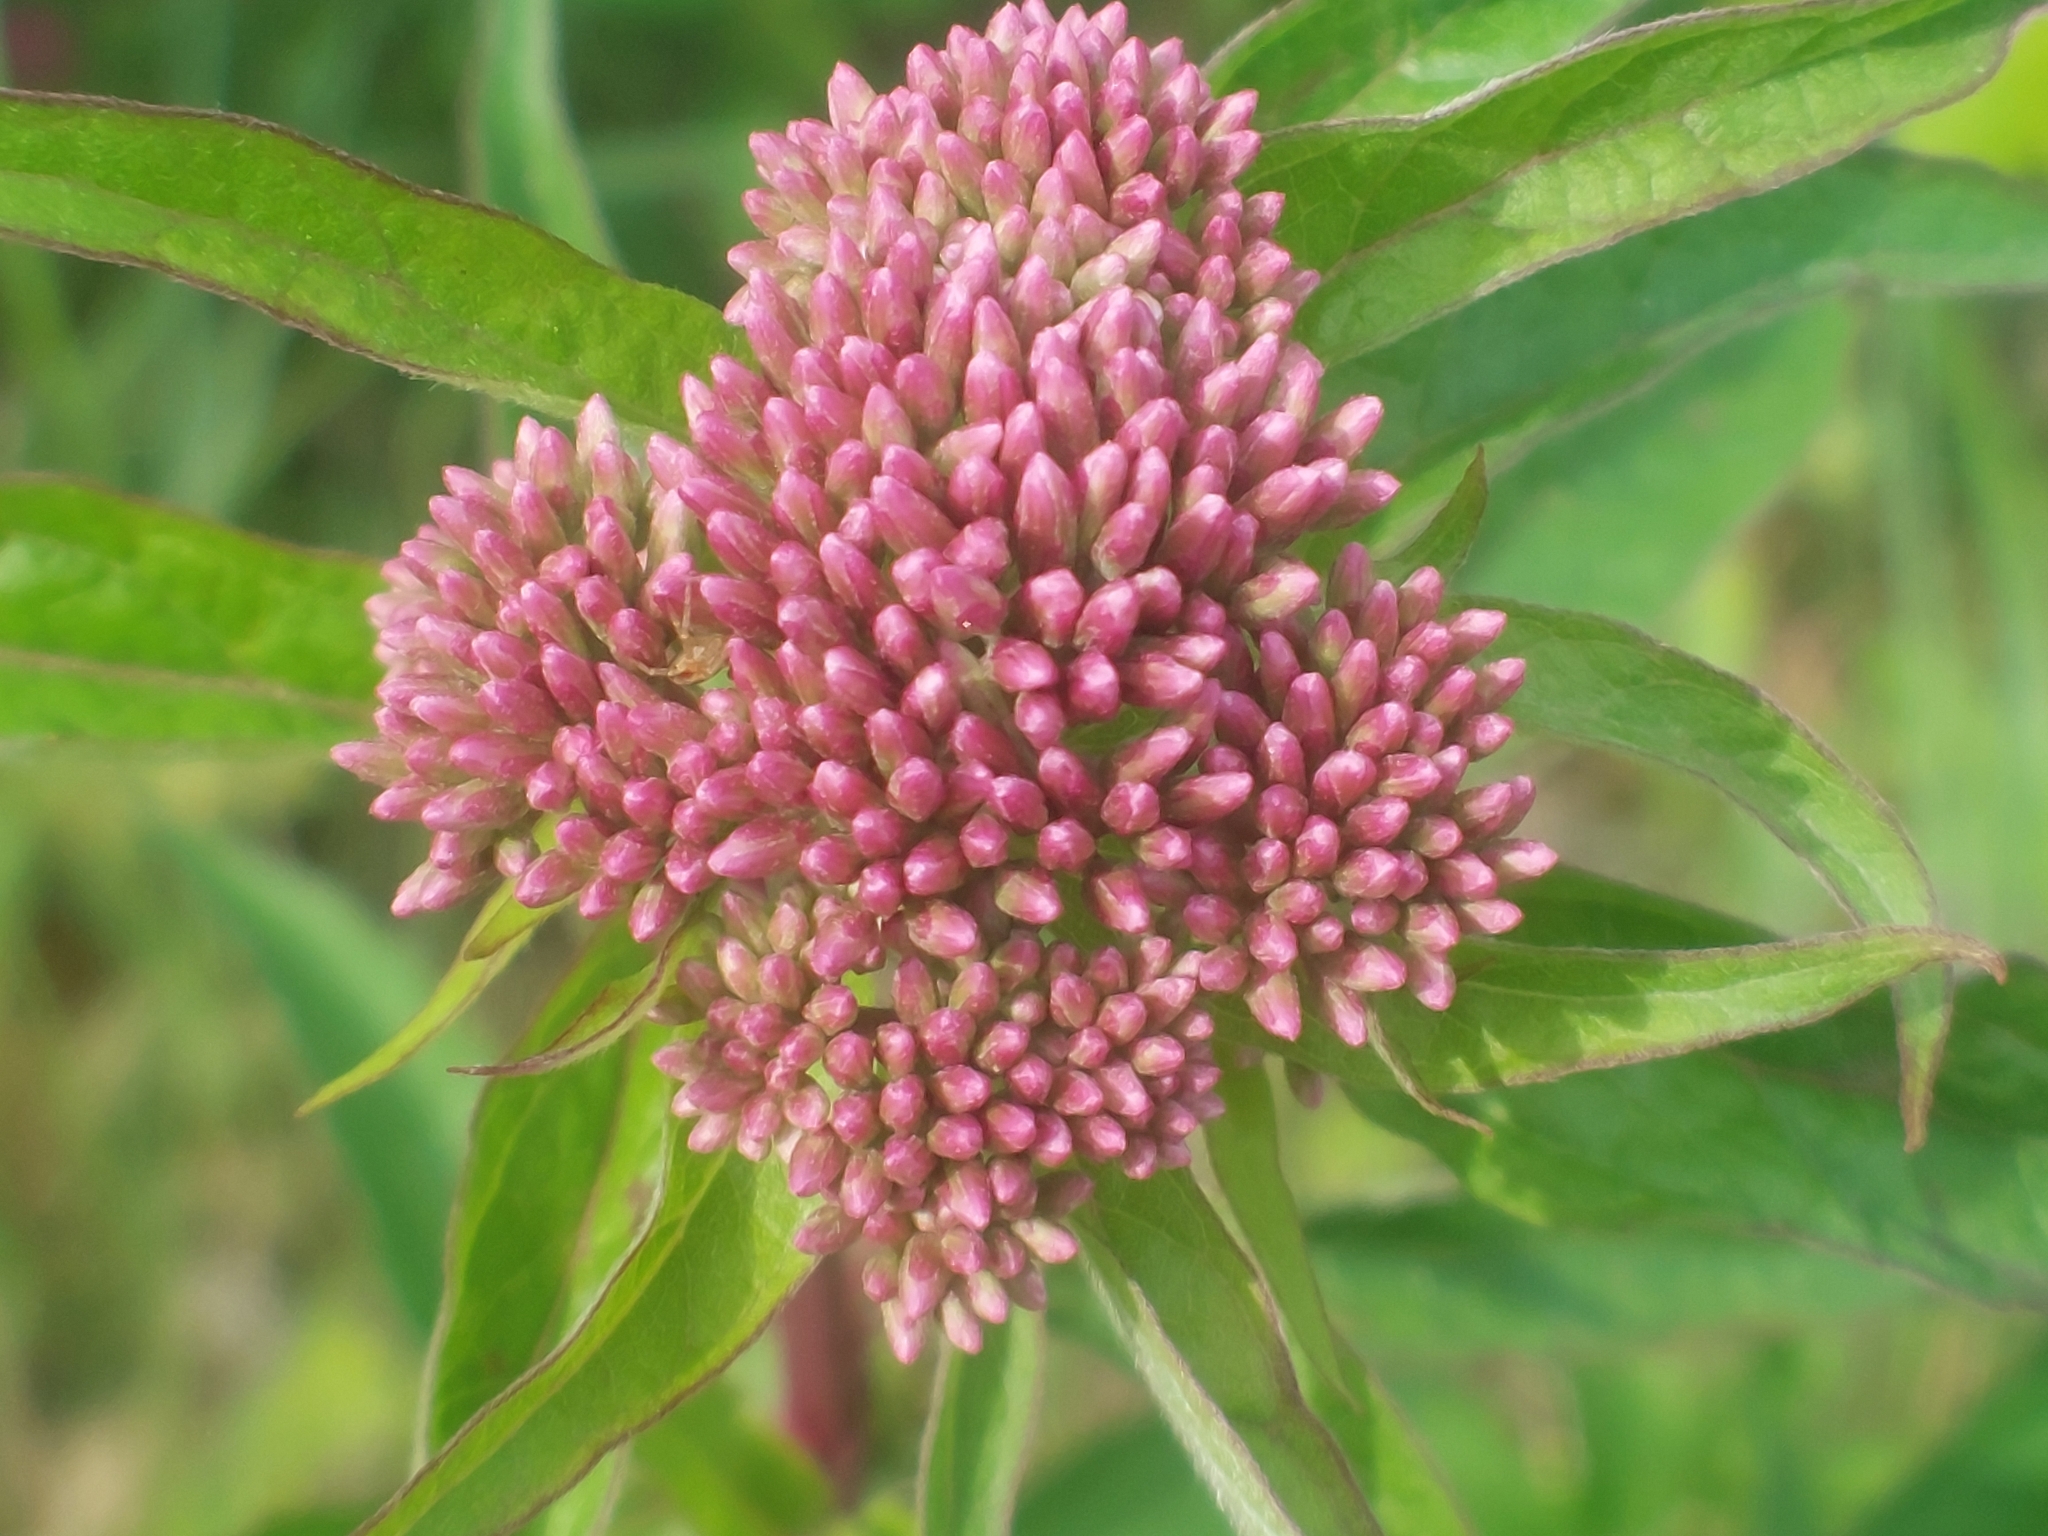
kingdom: Plantae
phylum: Tracheophyta
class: Magnoliopsida
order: Asterales
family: Asteraceae
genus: Eupatorium
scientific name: Eupatorium cannabinum
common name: Hemp-agrimony
